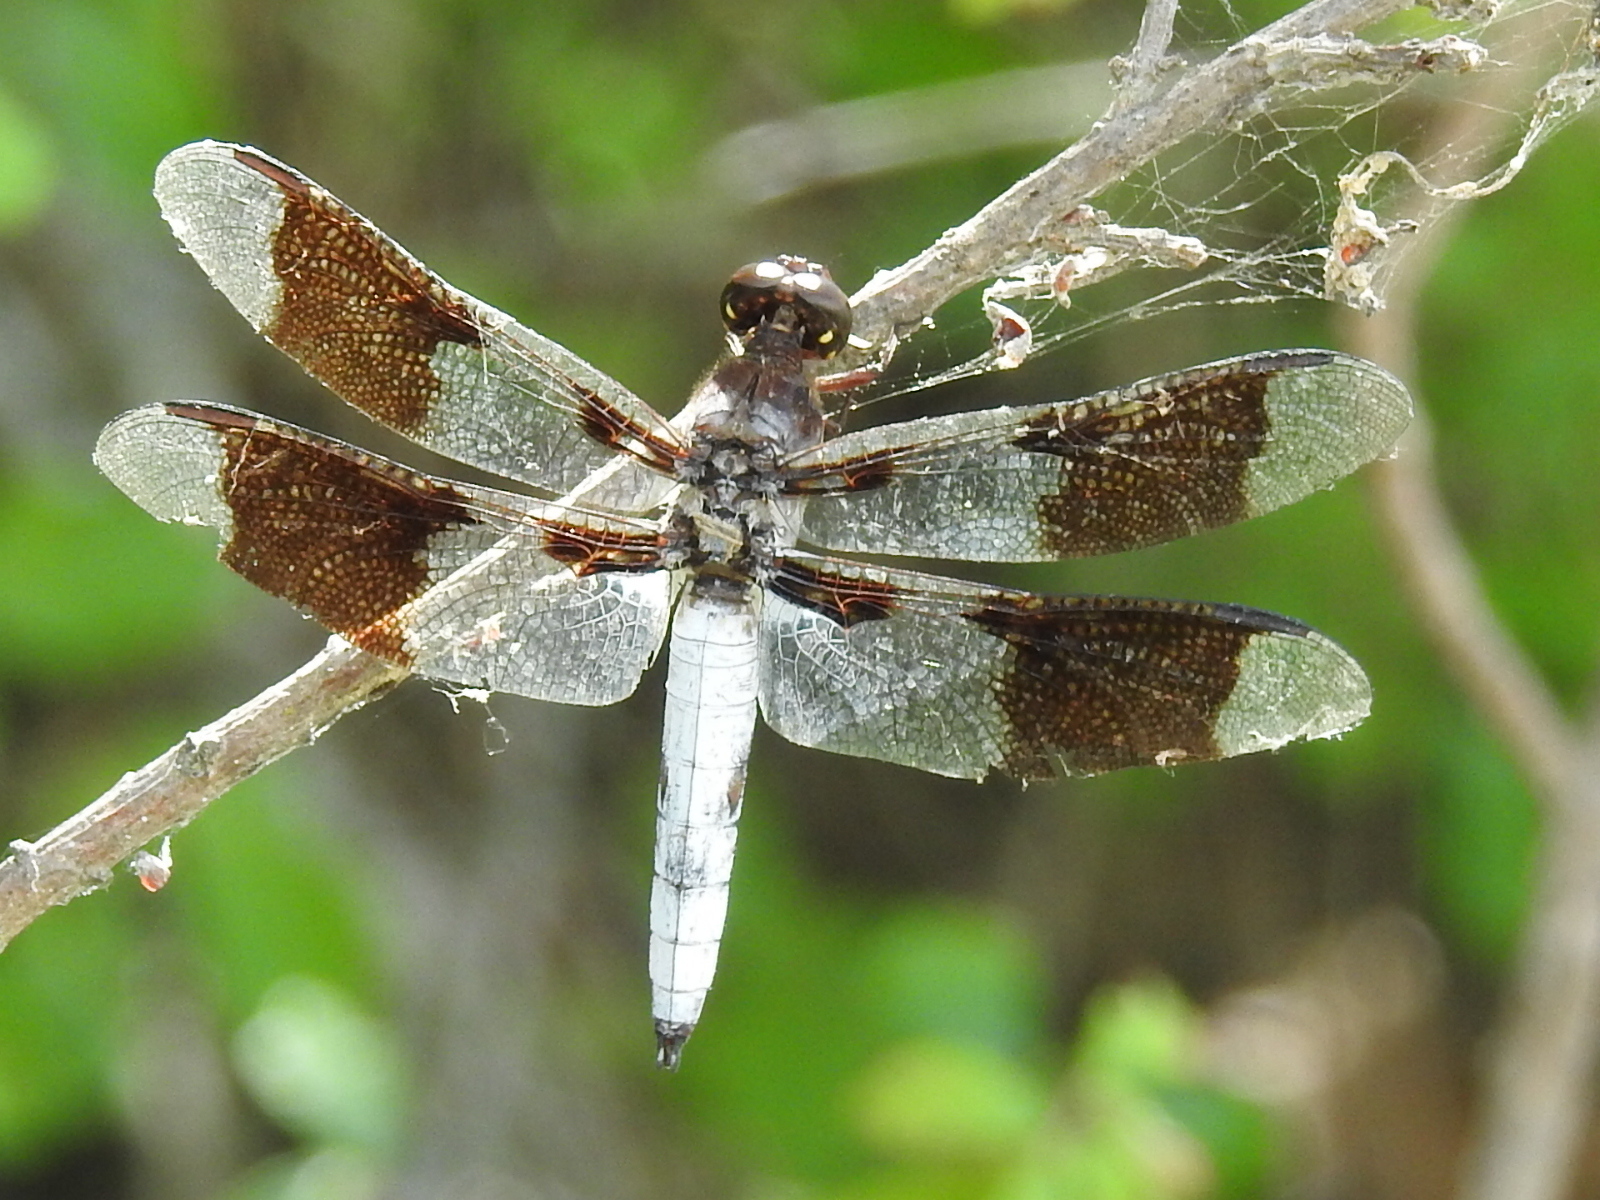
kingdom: Animalia
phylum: Arthropoda
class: Insecta
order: Odonata
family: Libellulidae
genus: Plathemis
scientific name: Plathemis lydia
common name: Common whitetail
